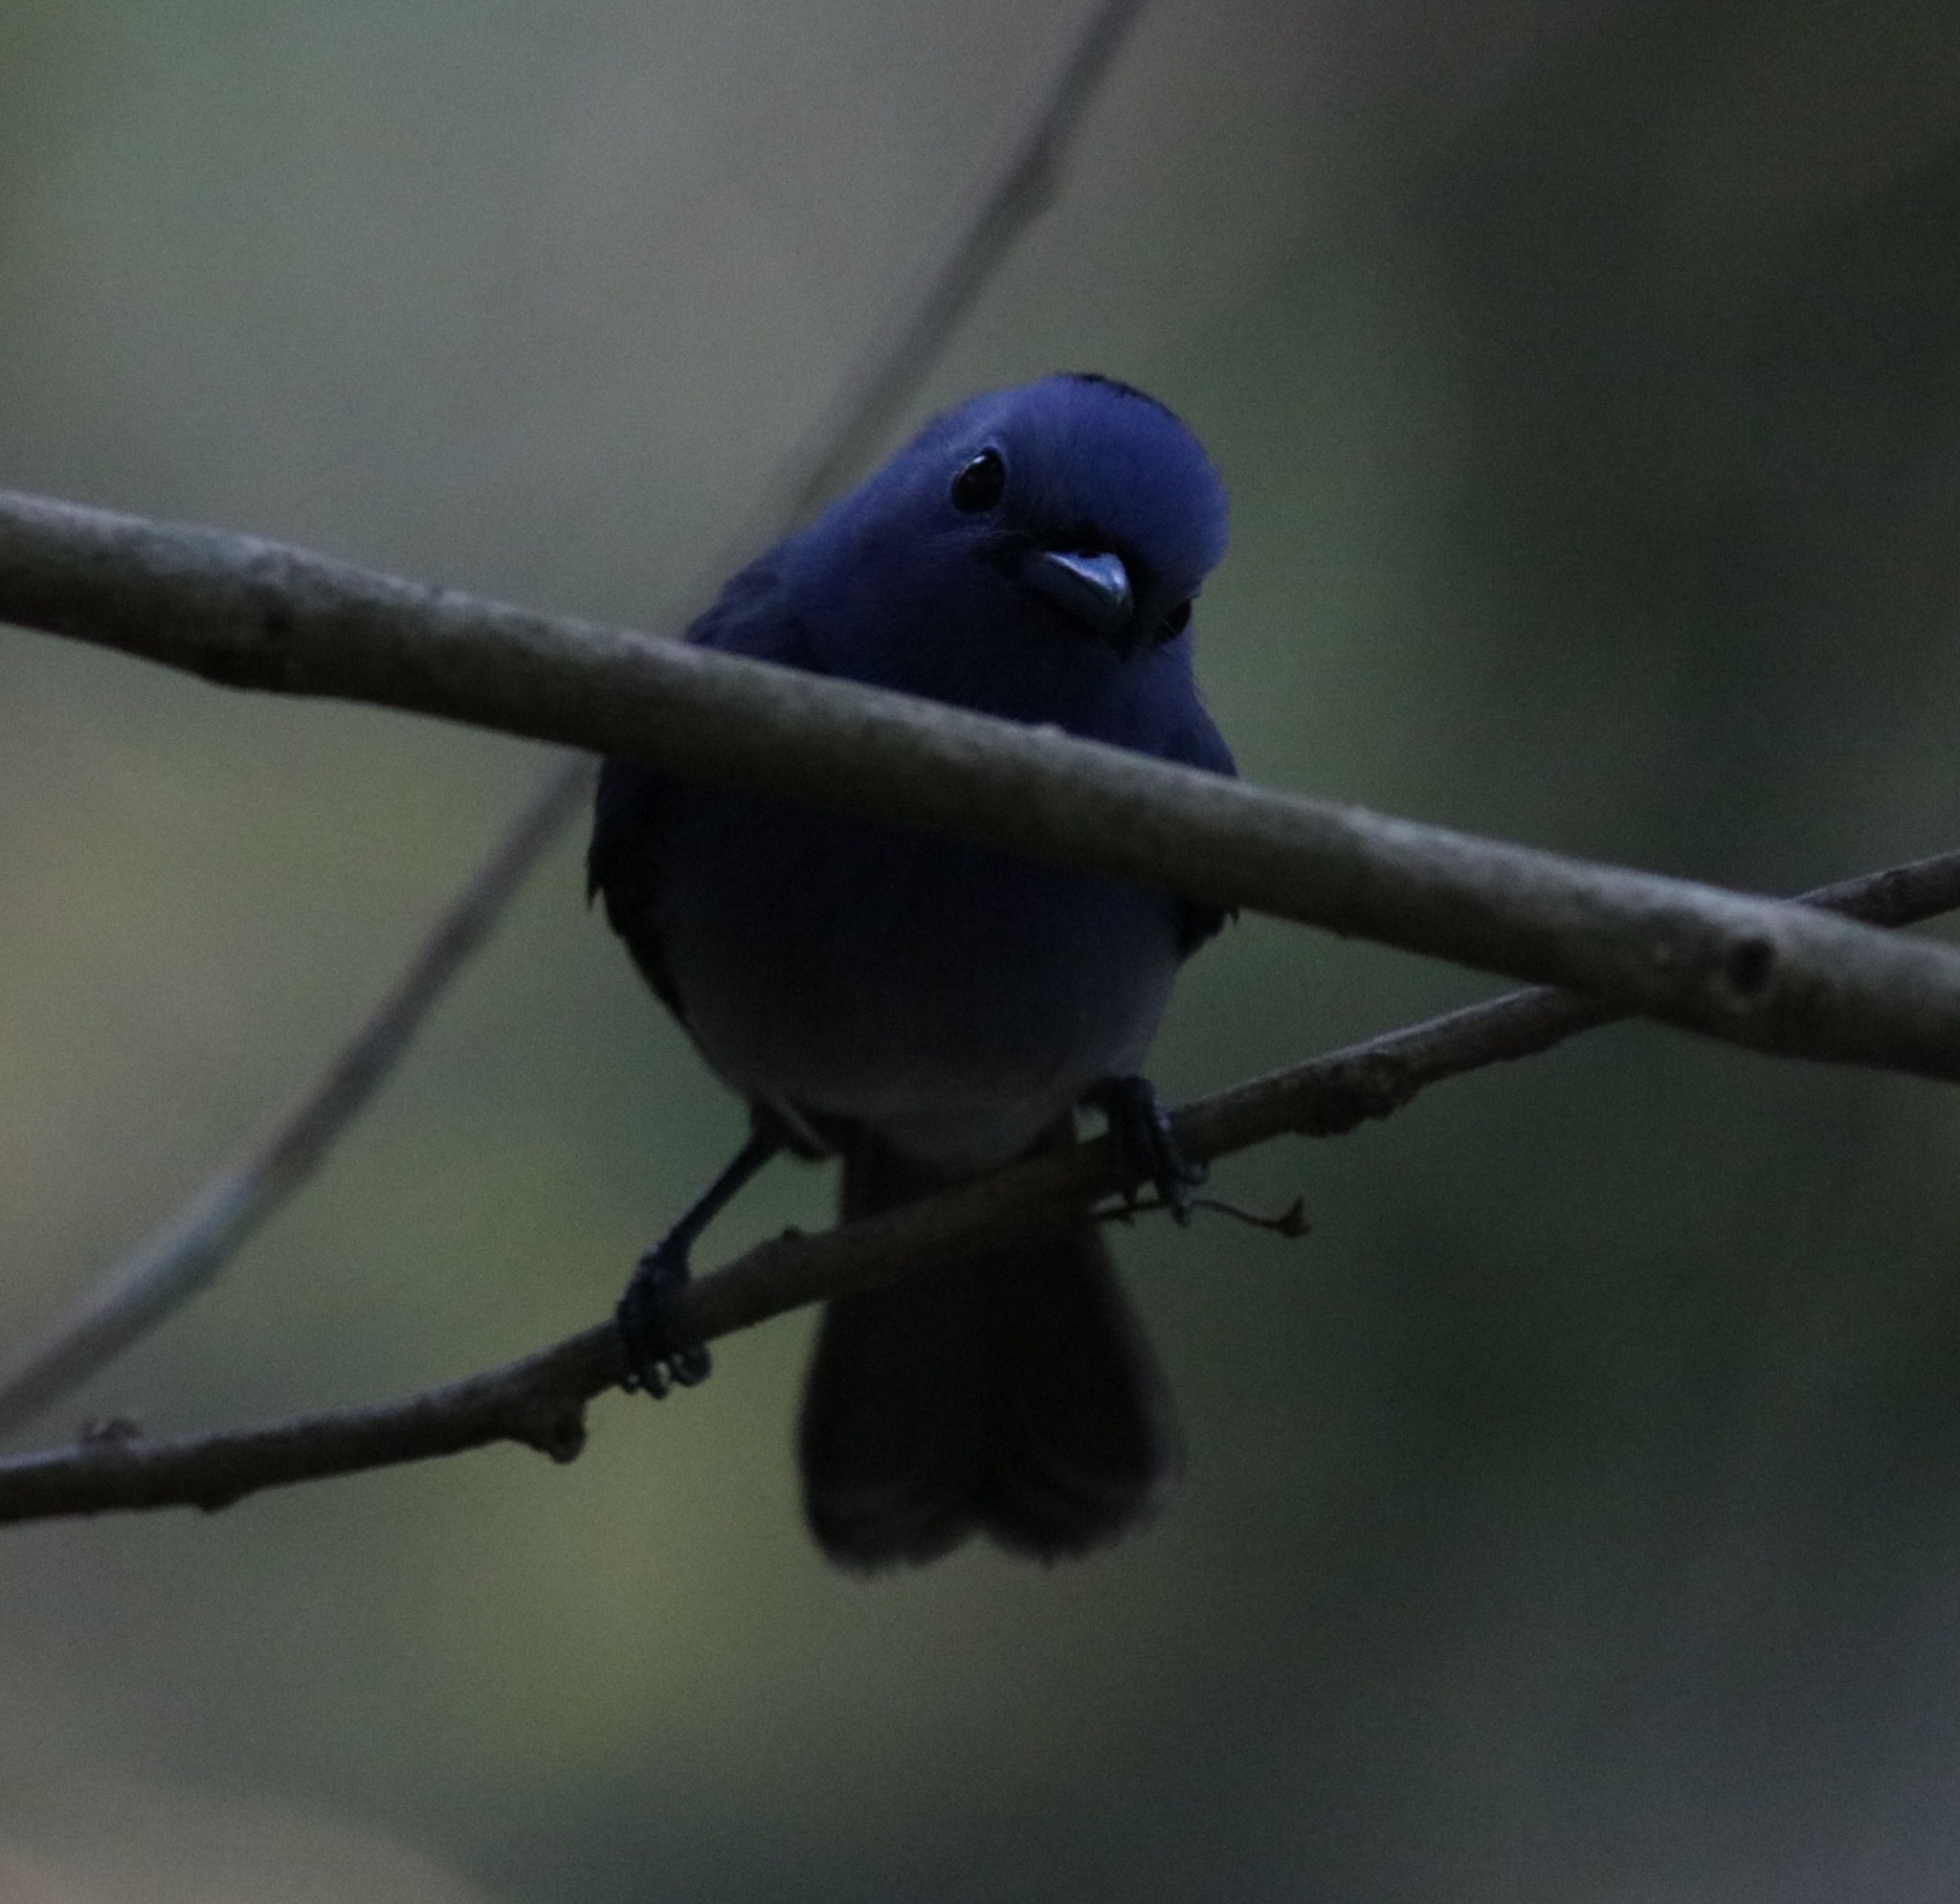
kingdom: Animalia
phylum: Chordata
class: Aves
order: Passeriformes
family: Monarchidae
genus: Hypothymis
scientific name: Hypothymis azurea
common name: Black-naped monarch
